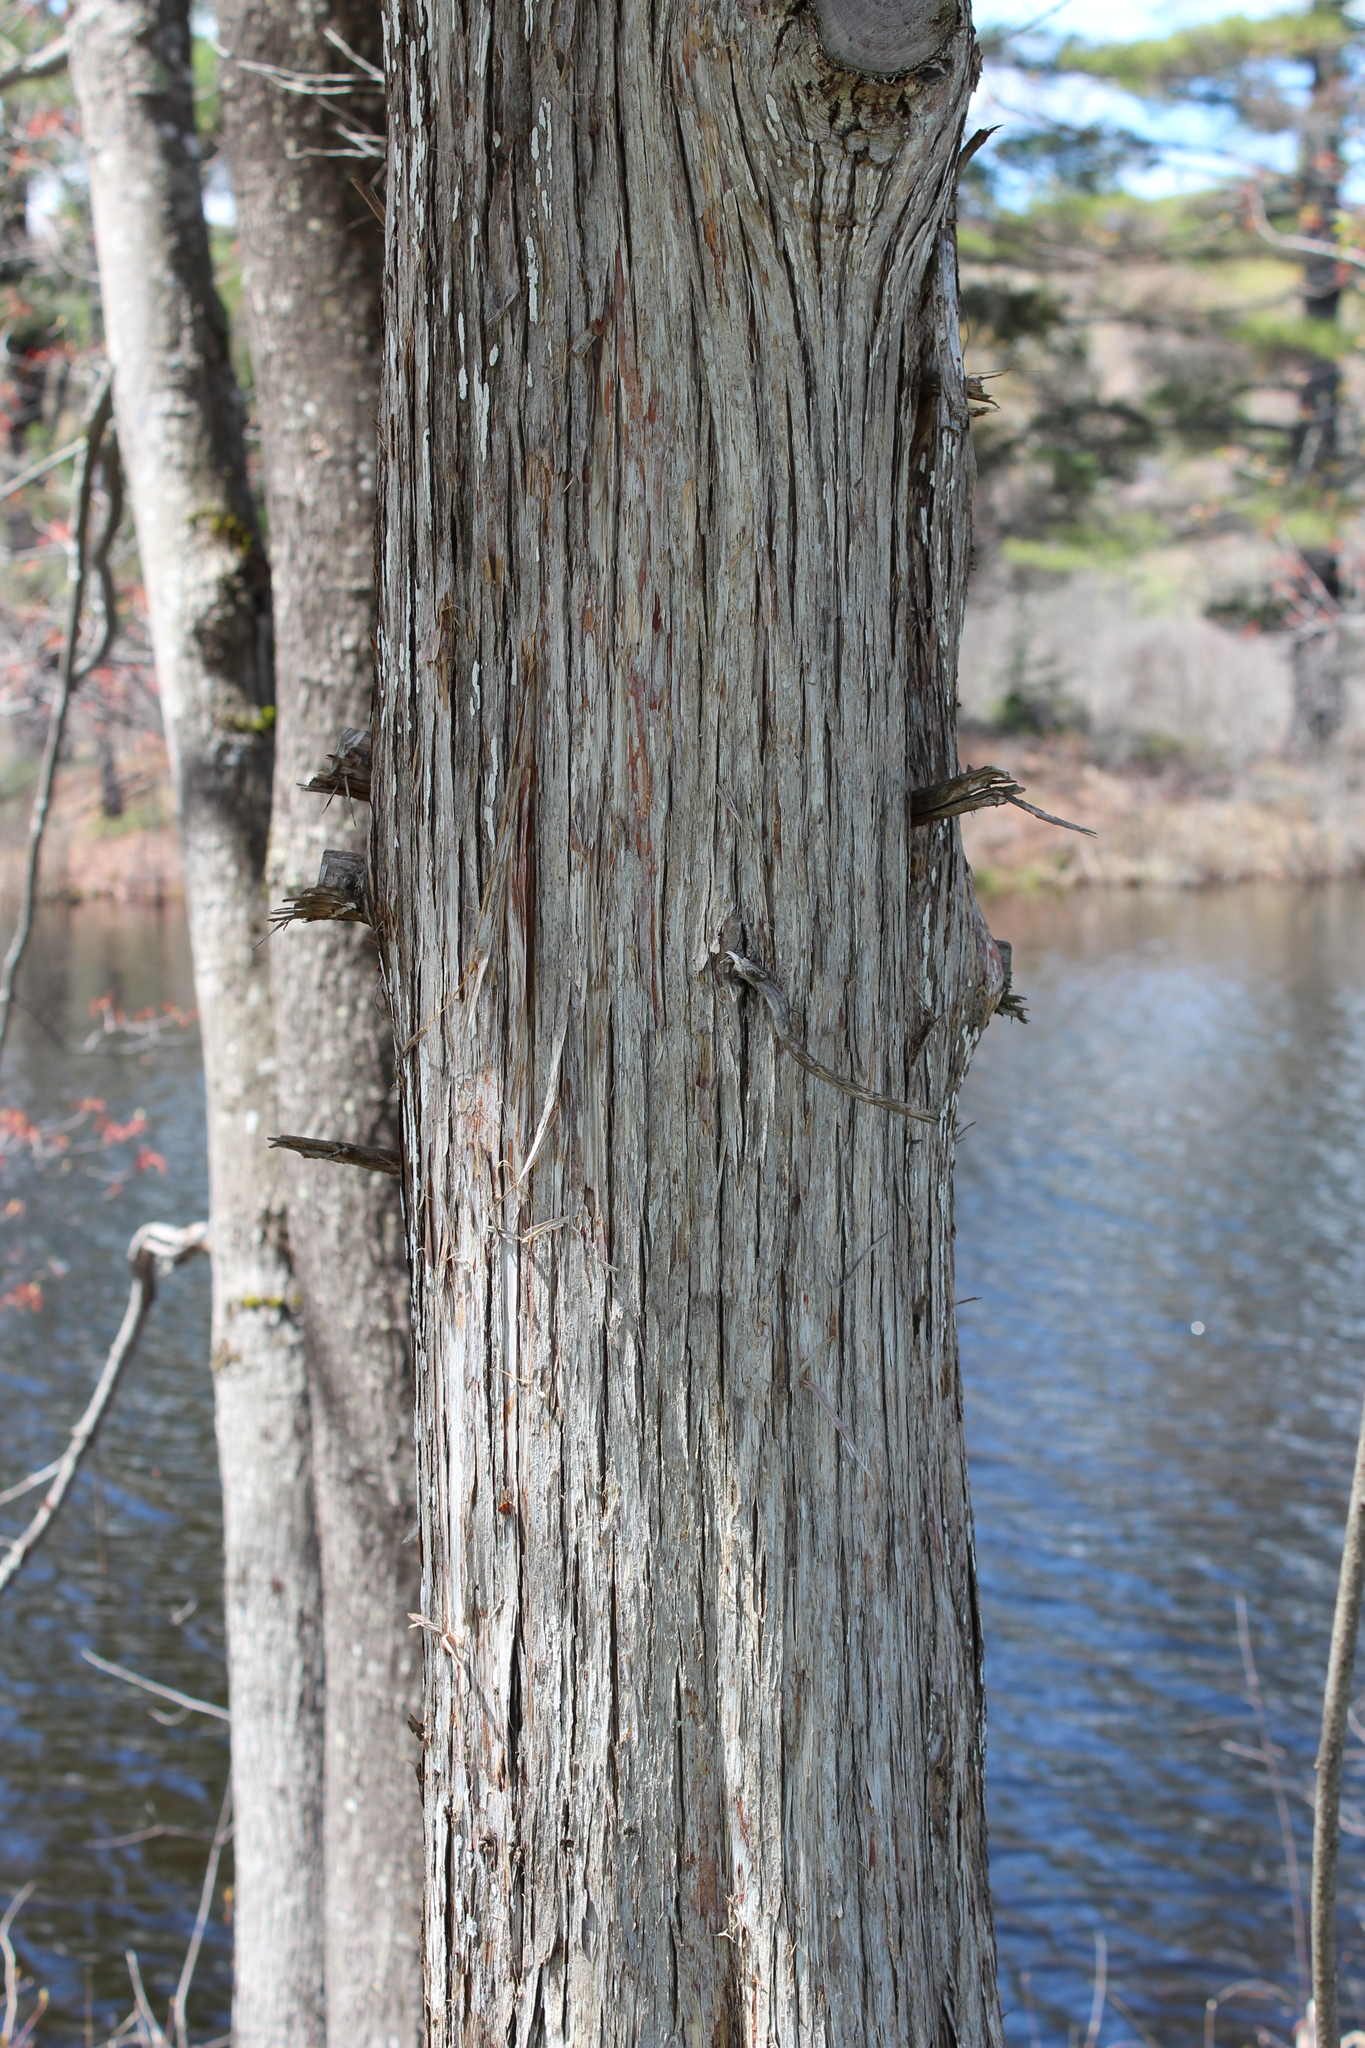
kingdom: Plantae
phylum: Tracheophyta
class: Pinopsida
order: Pinales
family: Cupressaceae
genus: Juniperus
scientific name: Juniperus virginiana
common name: Red juniper
